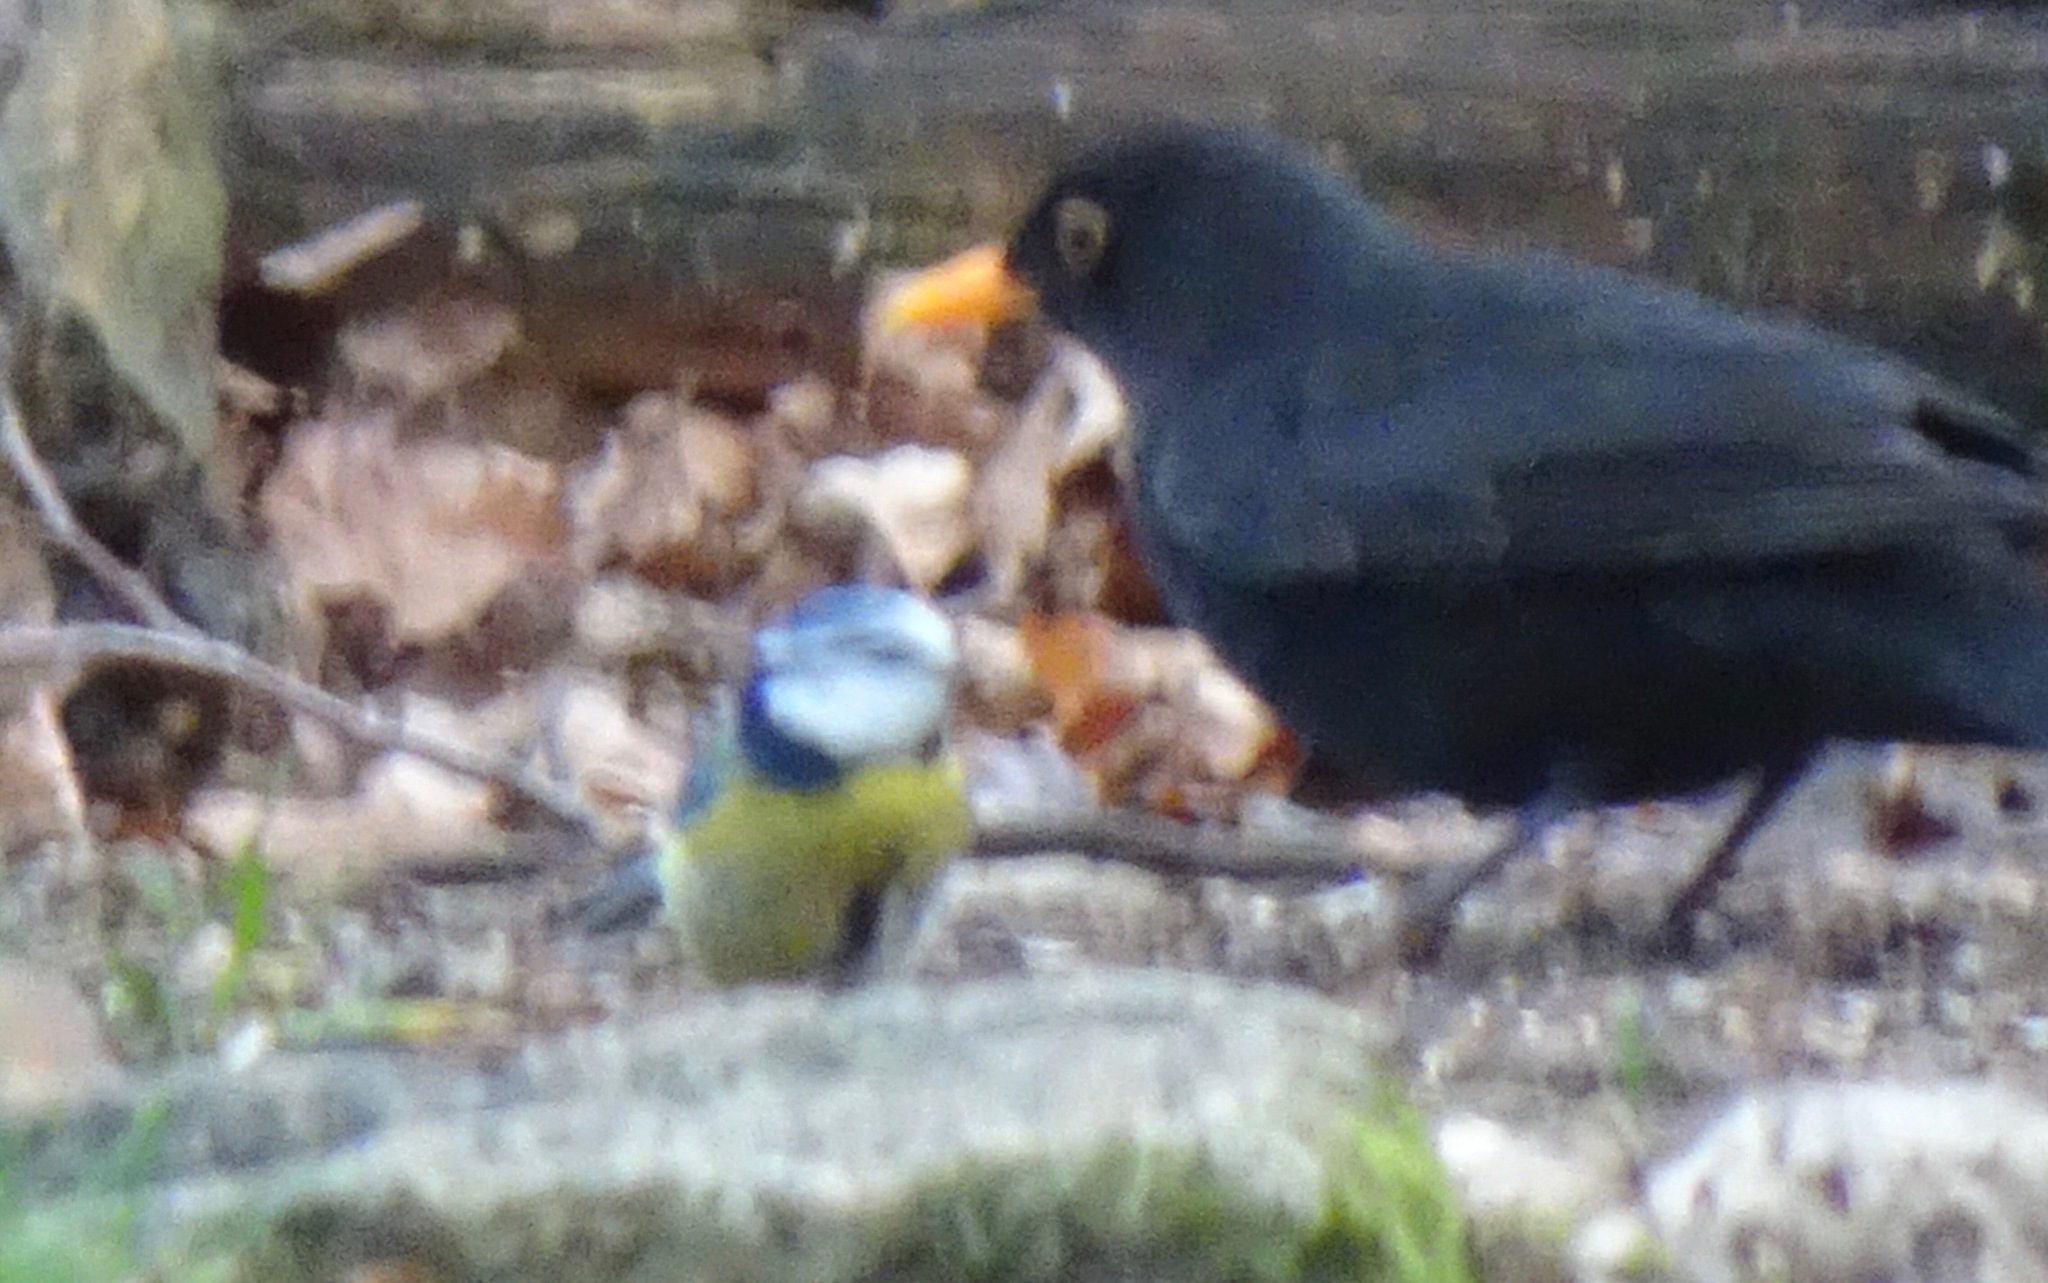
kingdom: Animalia
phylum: Chordata
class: Aves
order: Passeriformes
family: Paridae
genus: Cyanistes
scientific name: Cyanistes caeruleus
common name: Eurasian blue tit
